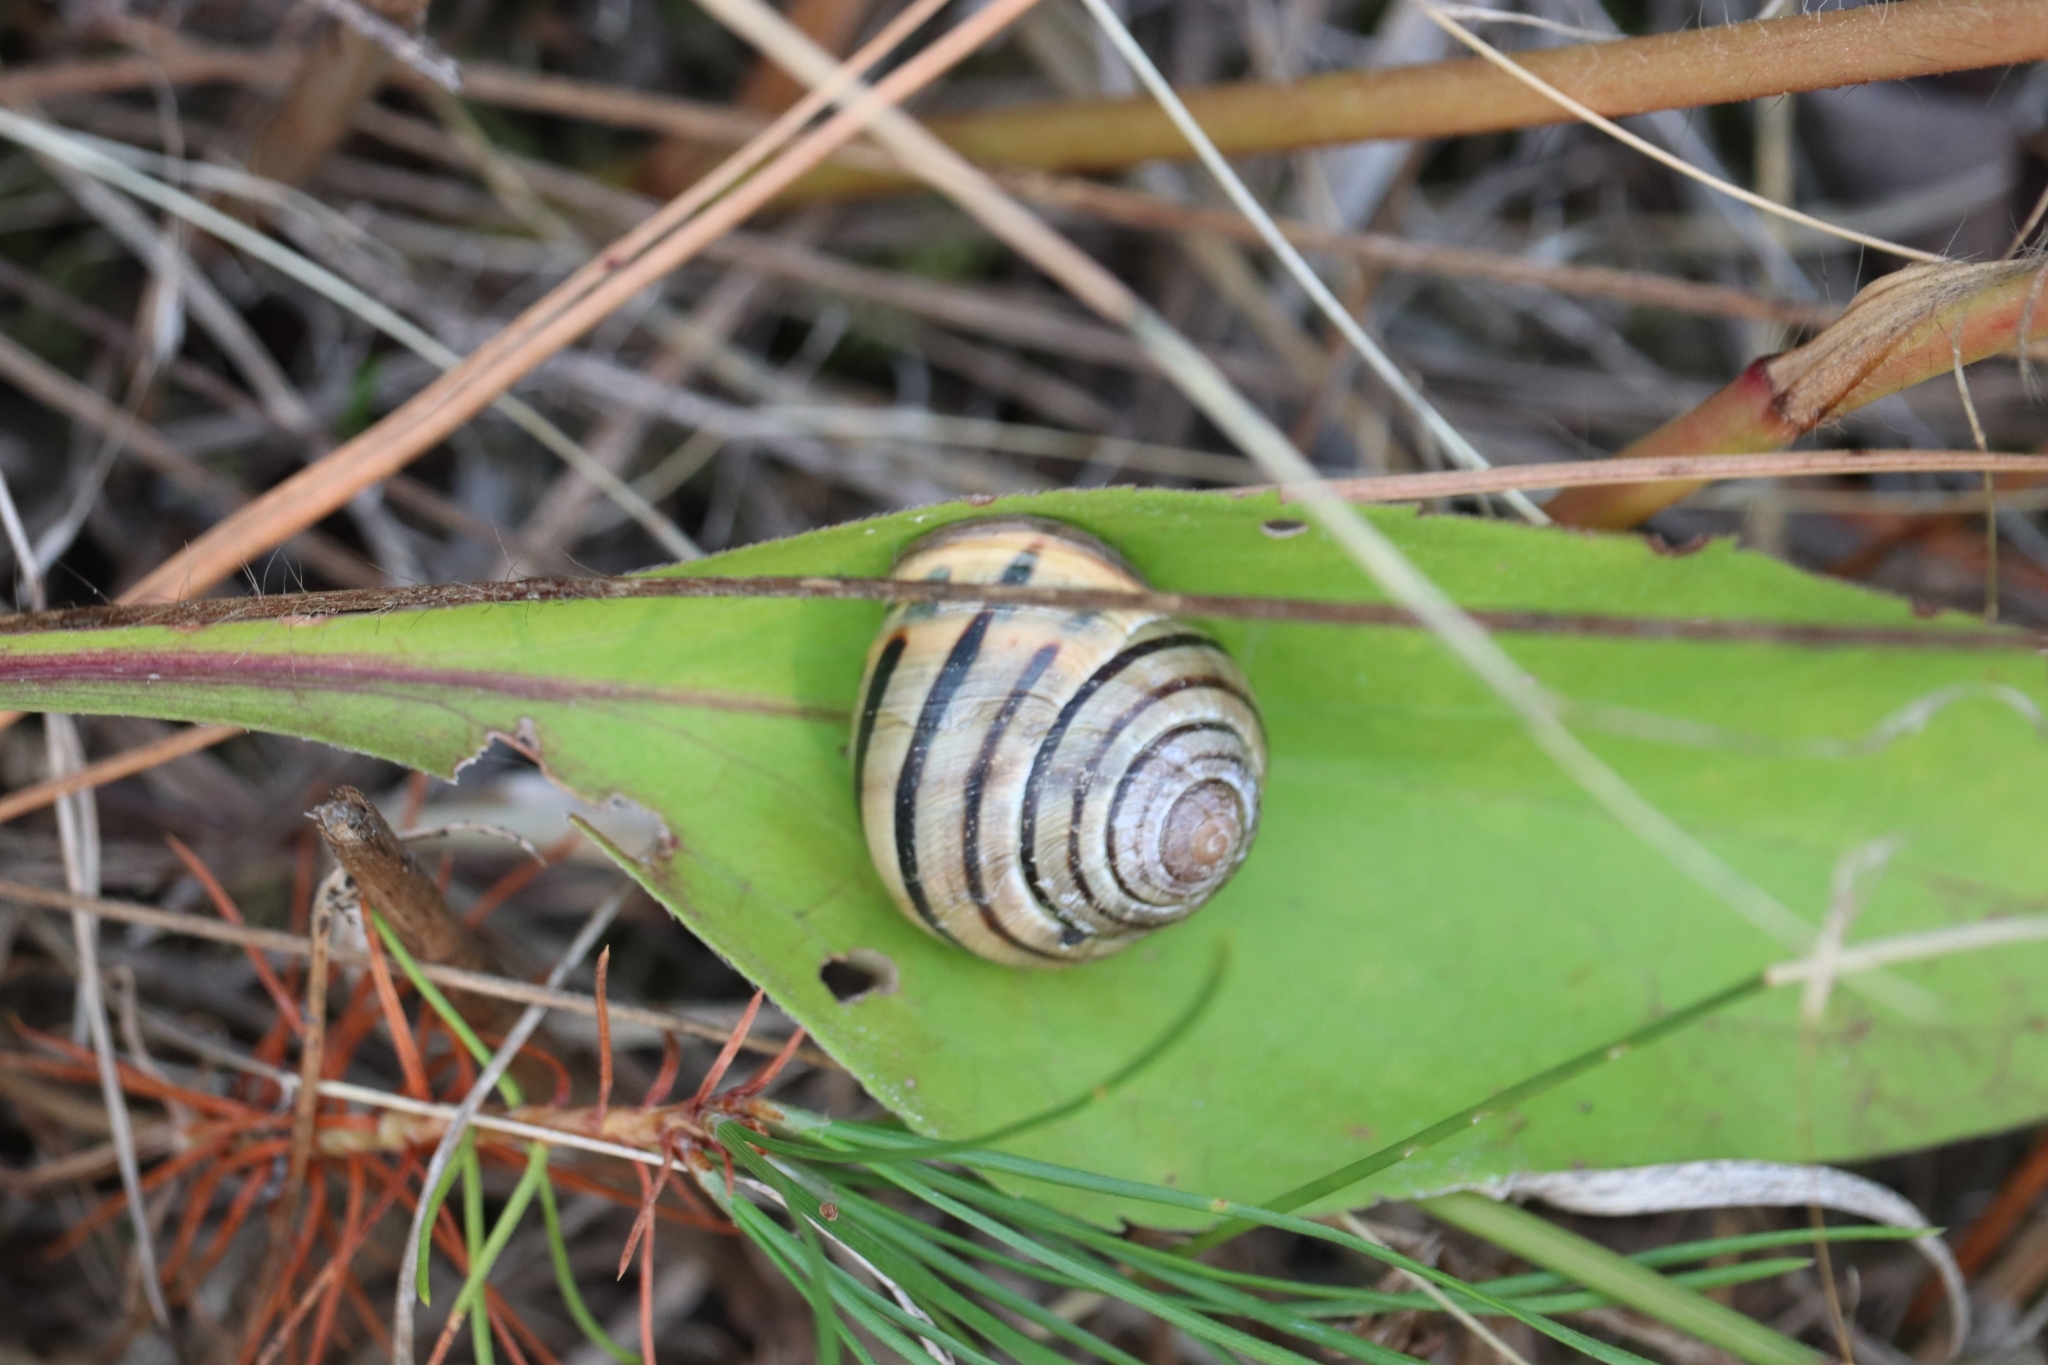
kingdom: Animalia
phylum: Mollusca
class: Gastropoda
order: Stylommatophora
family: Helicidae
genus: Cepaea
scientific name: Cepaea nemoralis
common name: Grovesnail
